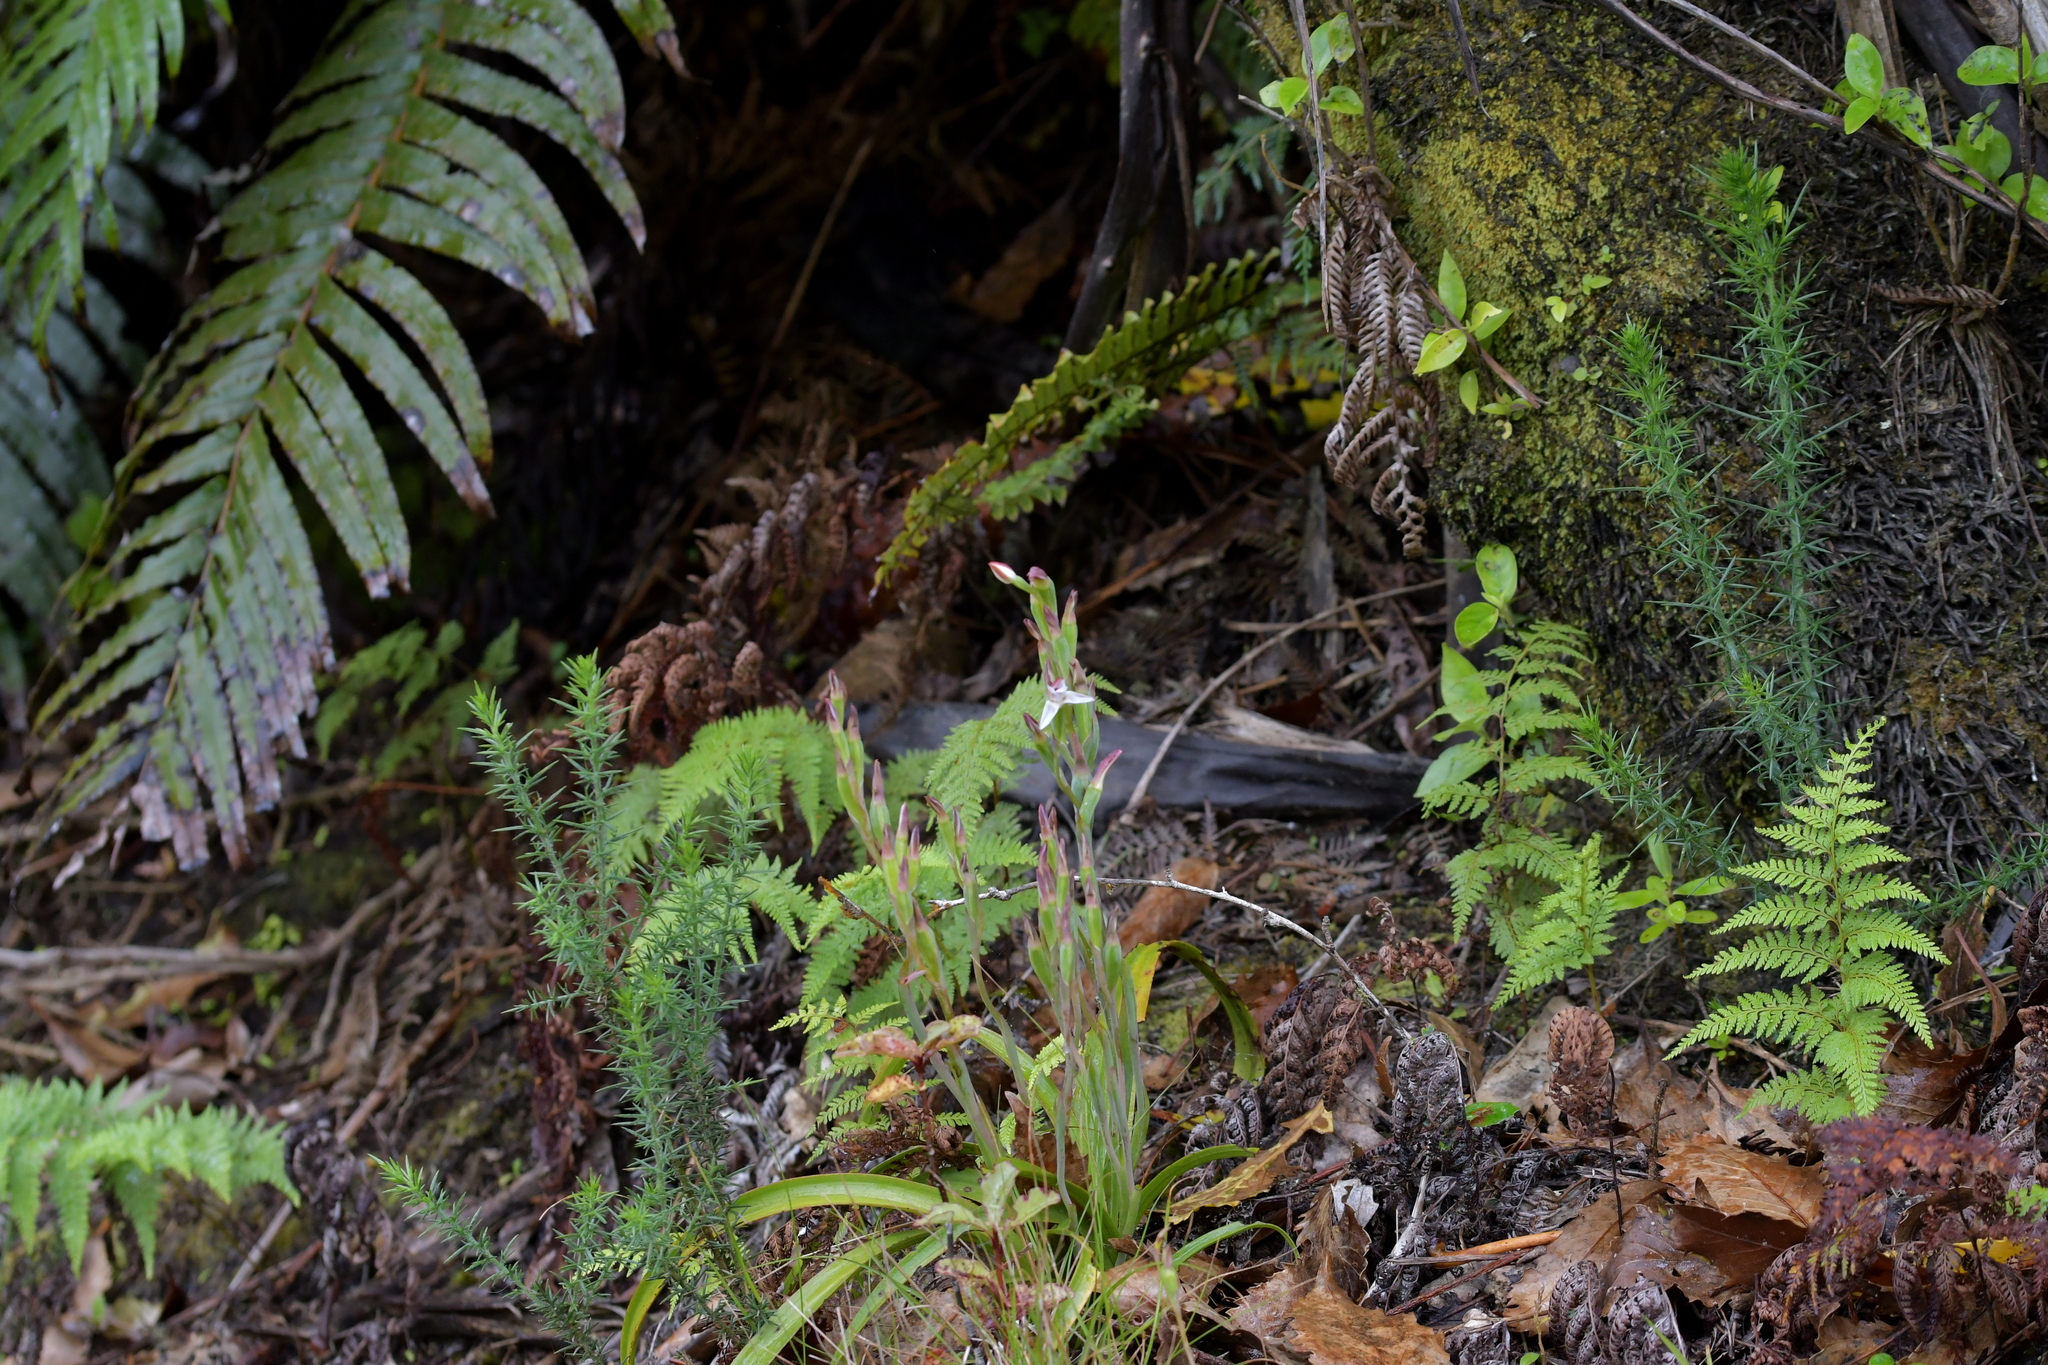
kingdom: Plantae
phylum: Tracheophyta
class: Liliopsida
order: Asparagales
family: Orchidaceae
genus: Thelymitra
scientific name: Thelymitra longifolia
